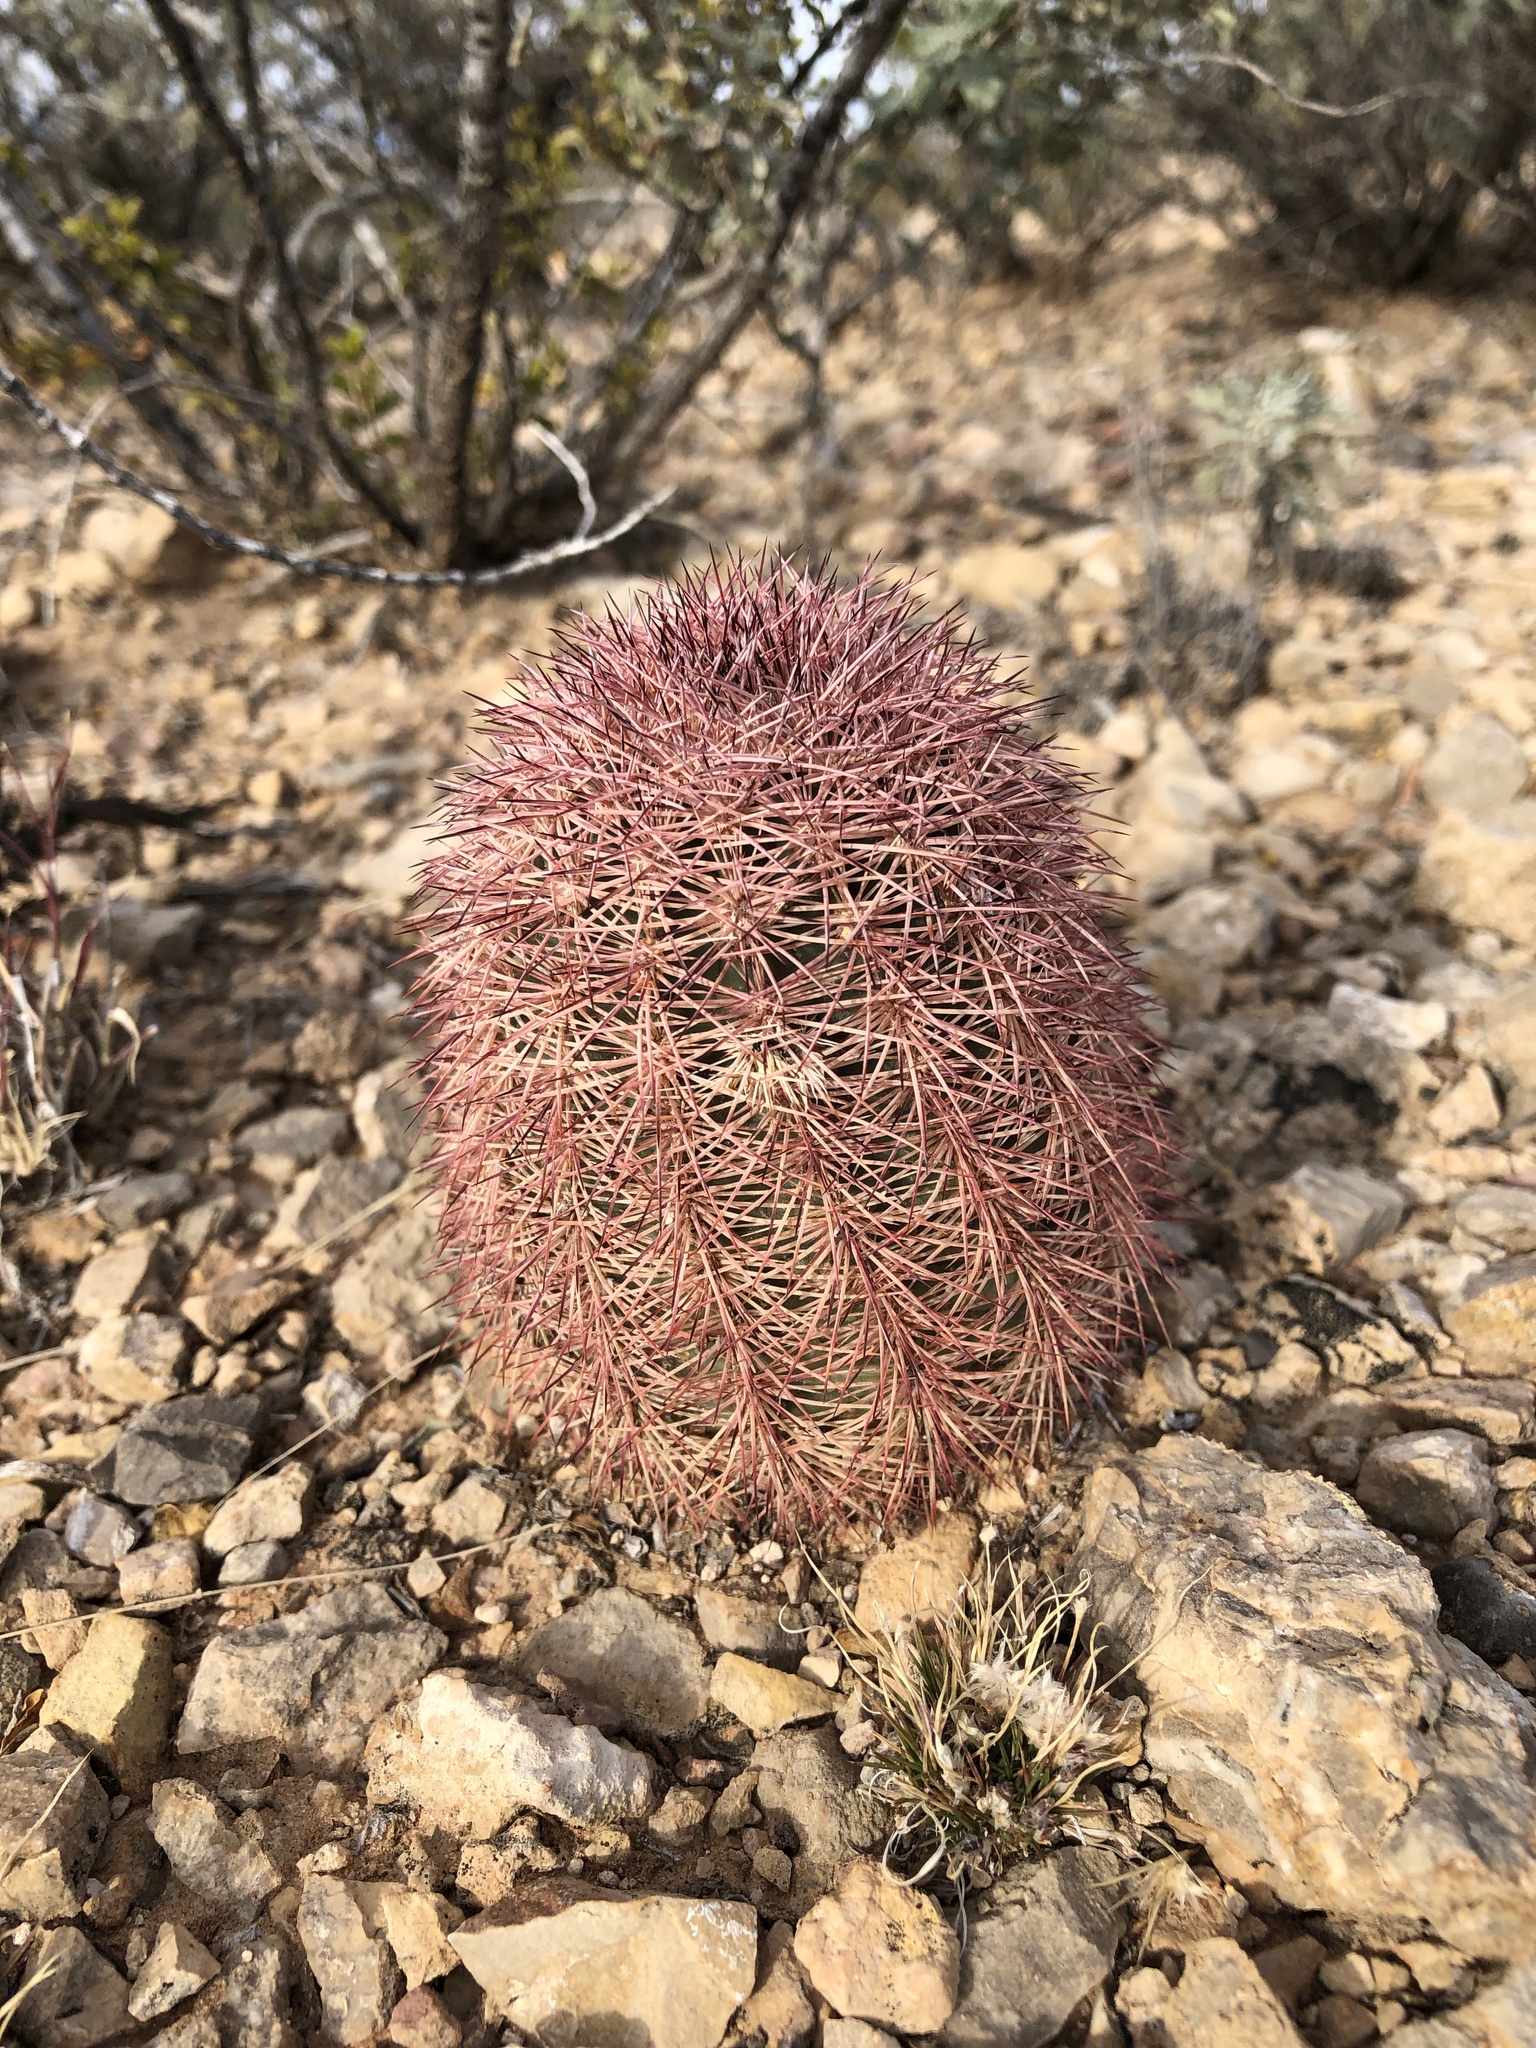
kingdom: Plantae
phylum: Tracheophyta
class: Magnoliopsida
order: Caryophyllales
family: Cactaceae
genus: Echinocereus
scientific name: Echinocereus dasyacanthus
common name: Spiny hedgehog cactus
